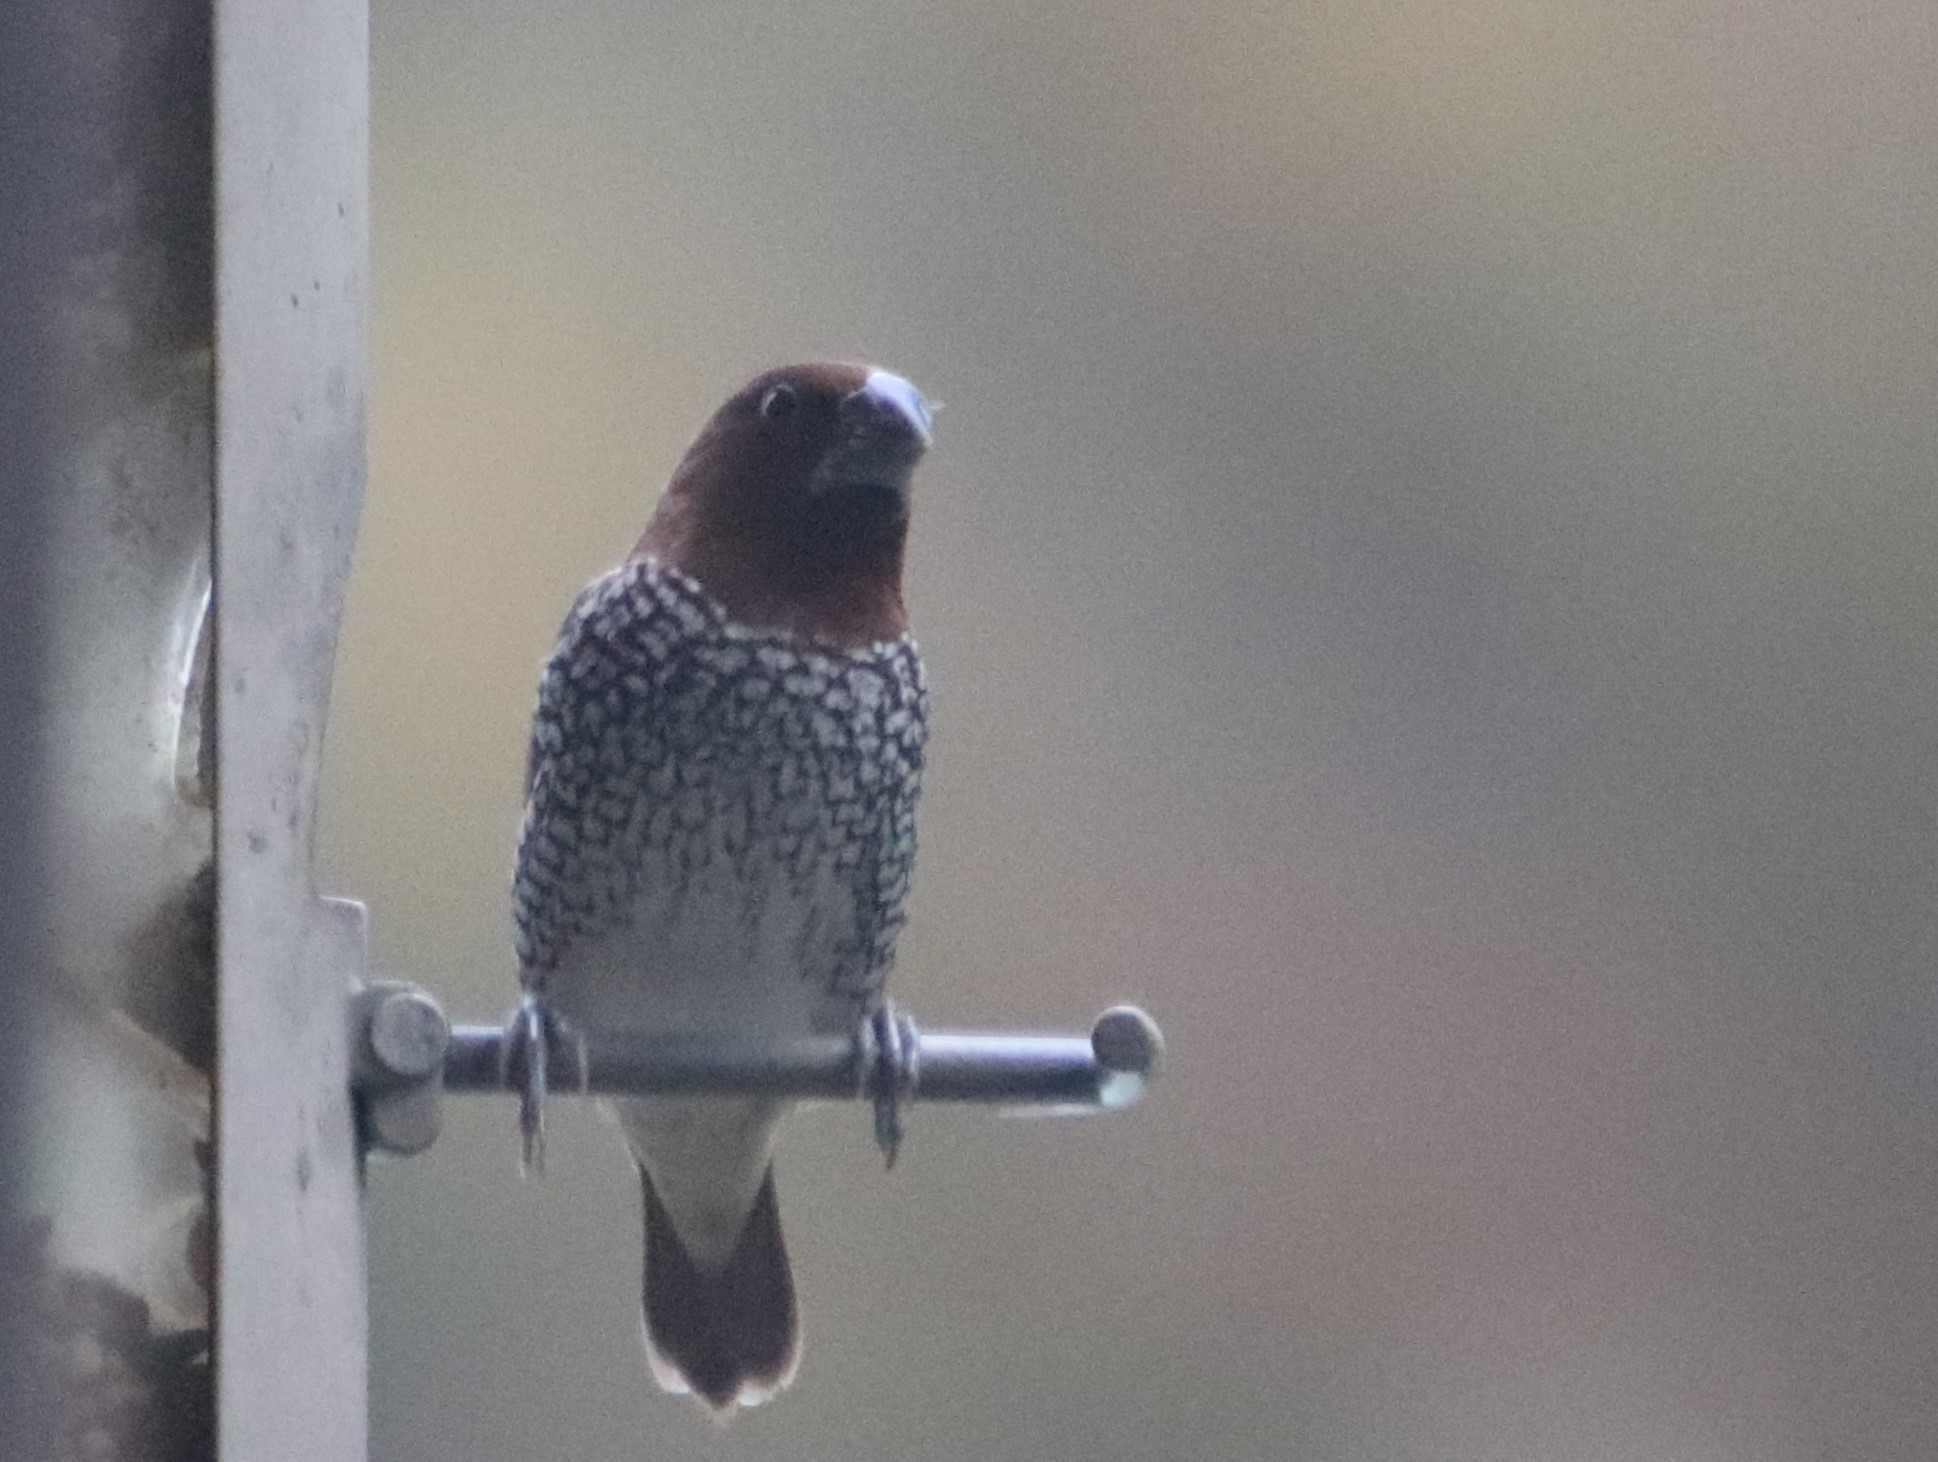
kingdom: Animalia
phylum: Chordata
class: Aves
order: Passeriformes
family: Estrildidae
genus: Lonchura
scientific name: Lonchura punctulata
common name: Scaly-breasted munia
